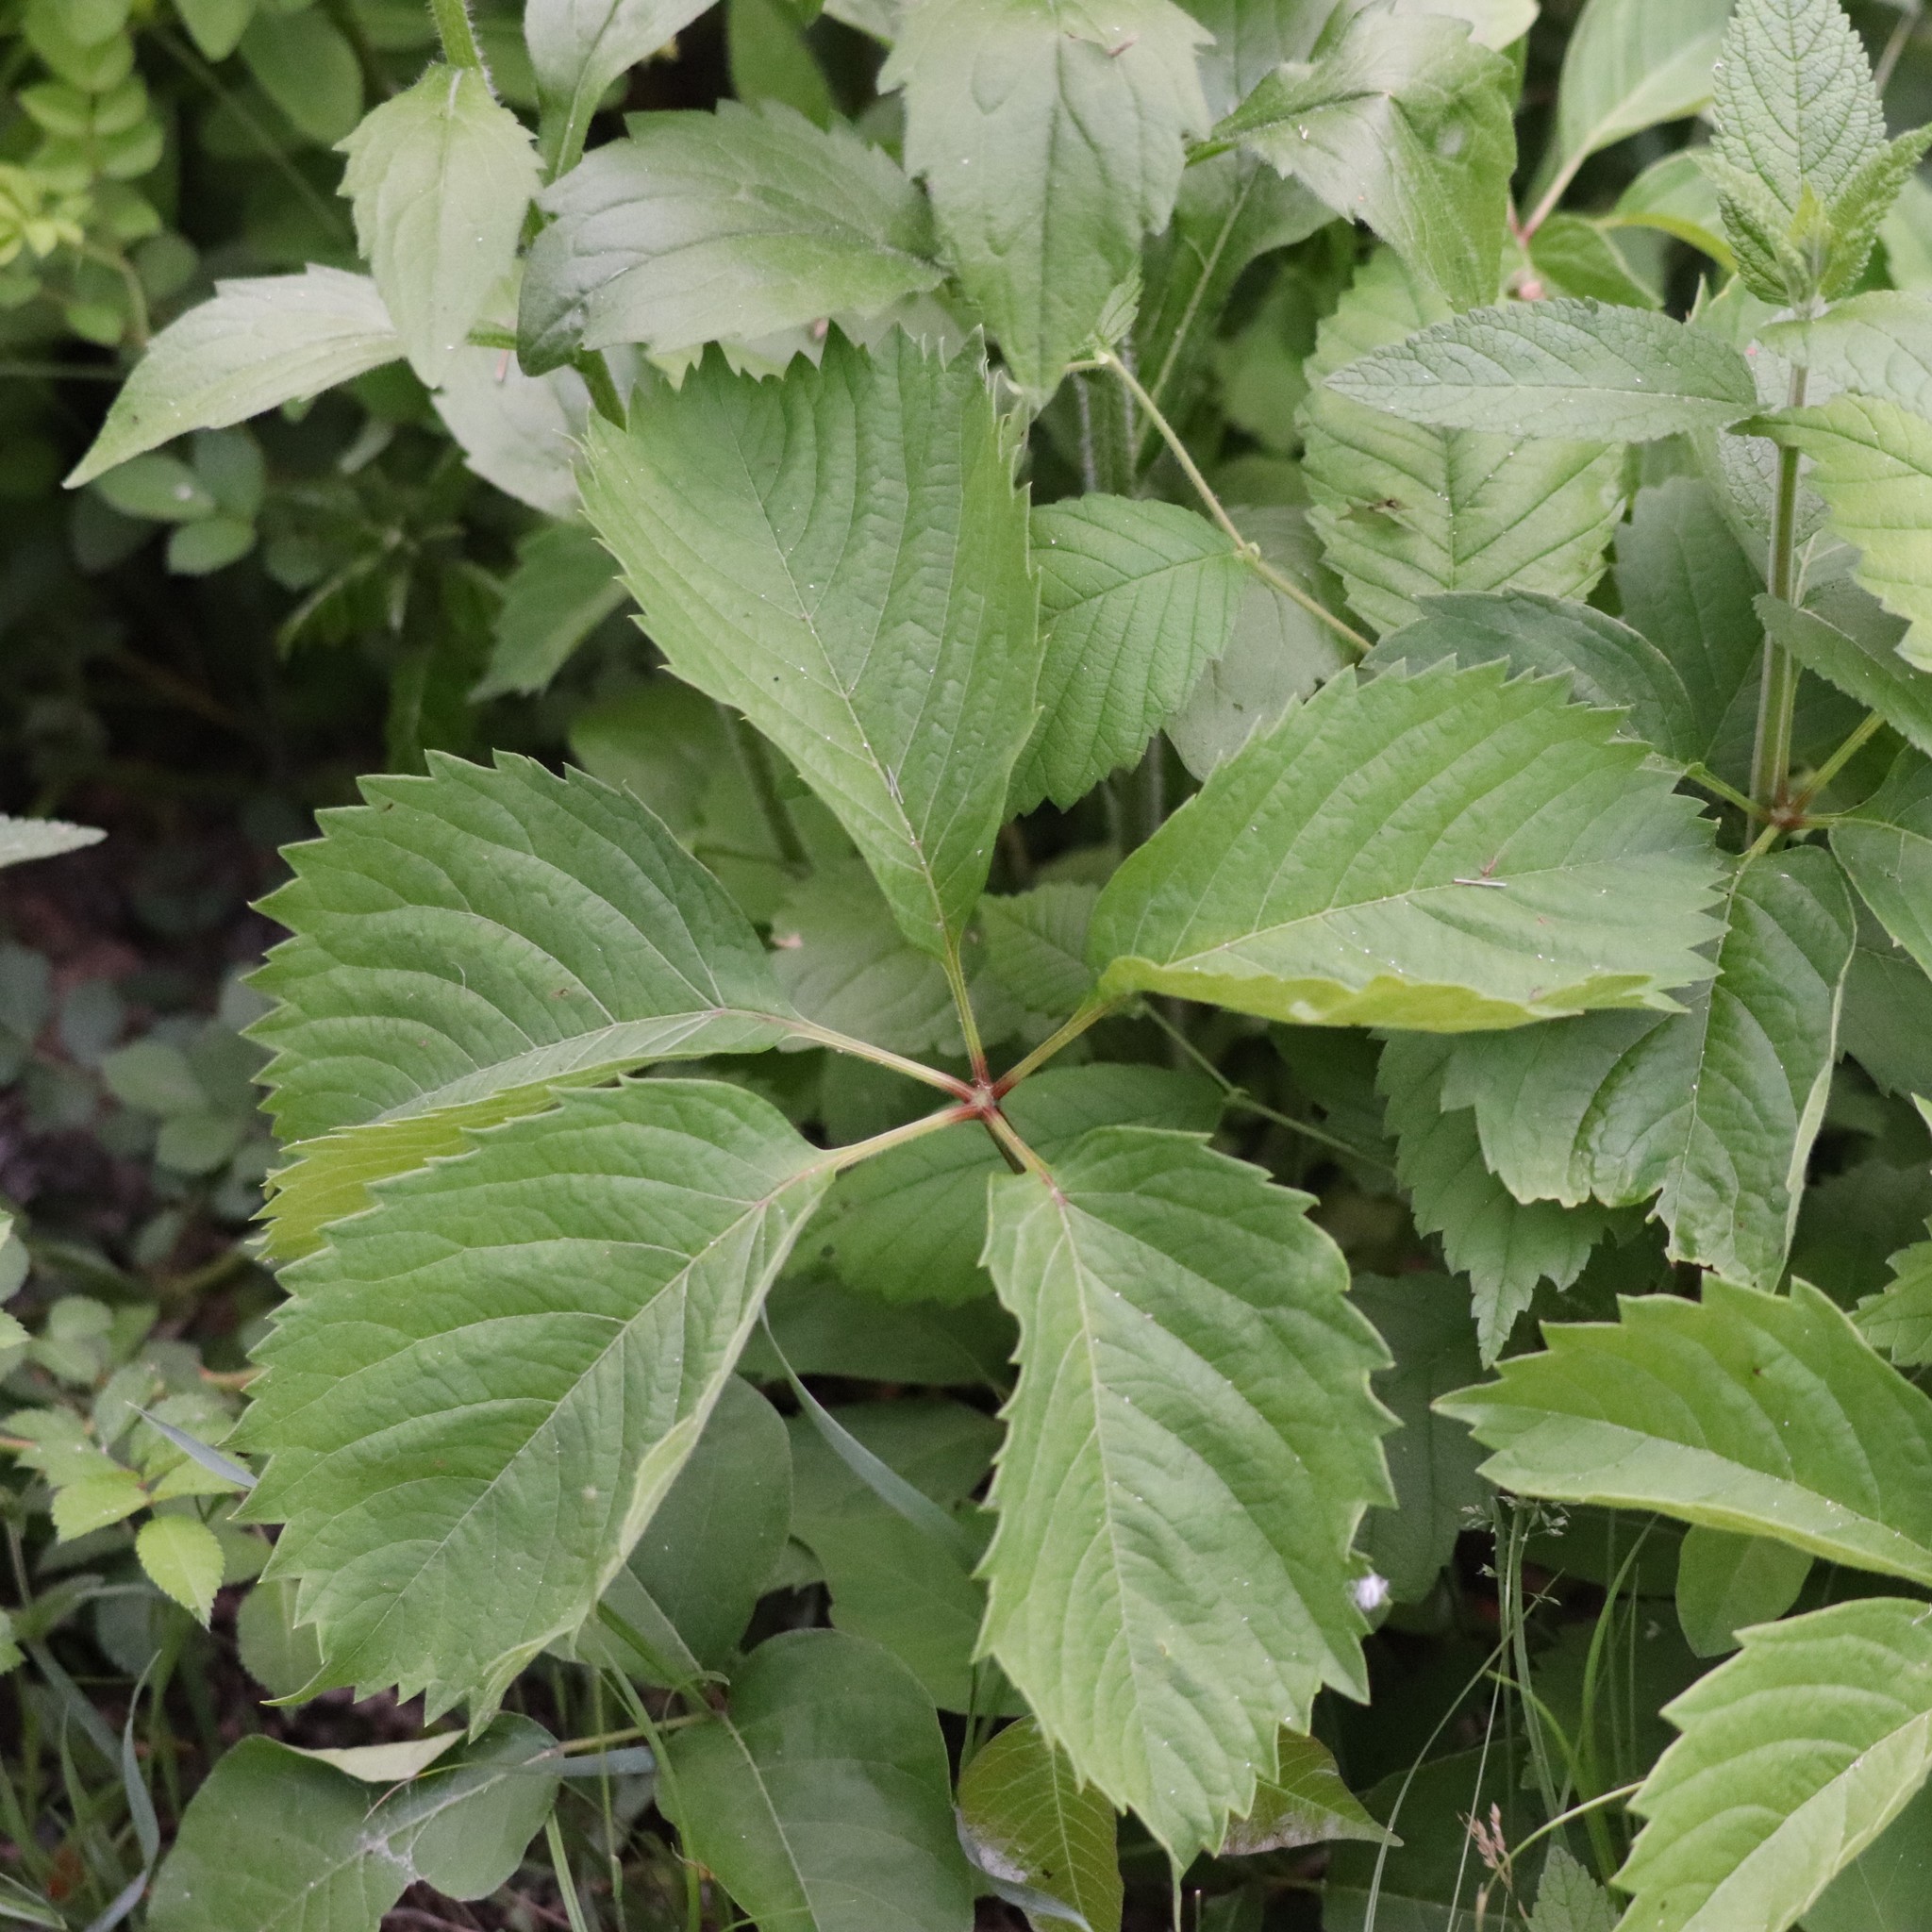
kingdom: Plantae
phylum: Tracheophyta
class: Magnoliopsida
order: Vitales
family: Vitaceae
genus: Parthenocissus
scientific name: Parthenocissus inserta
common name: False virginia-creeper
